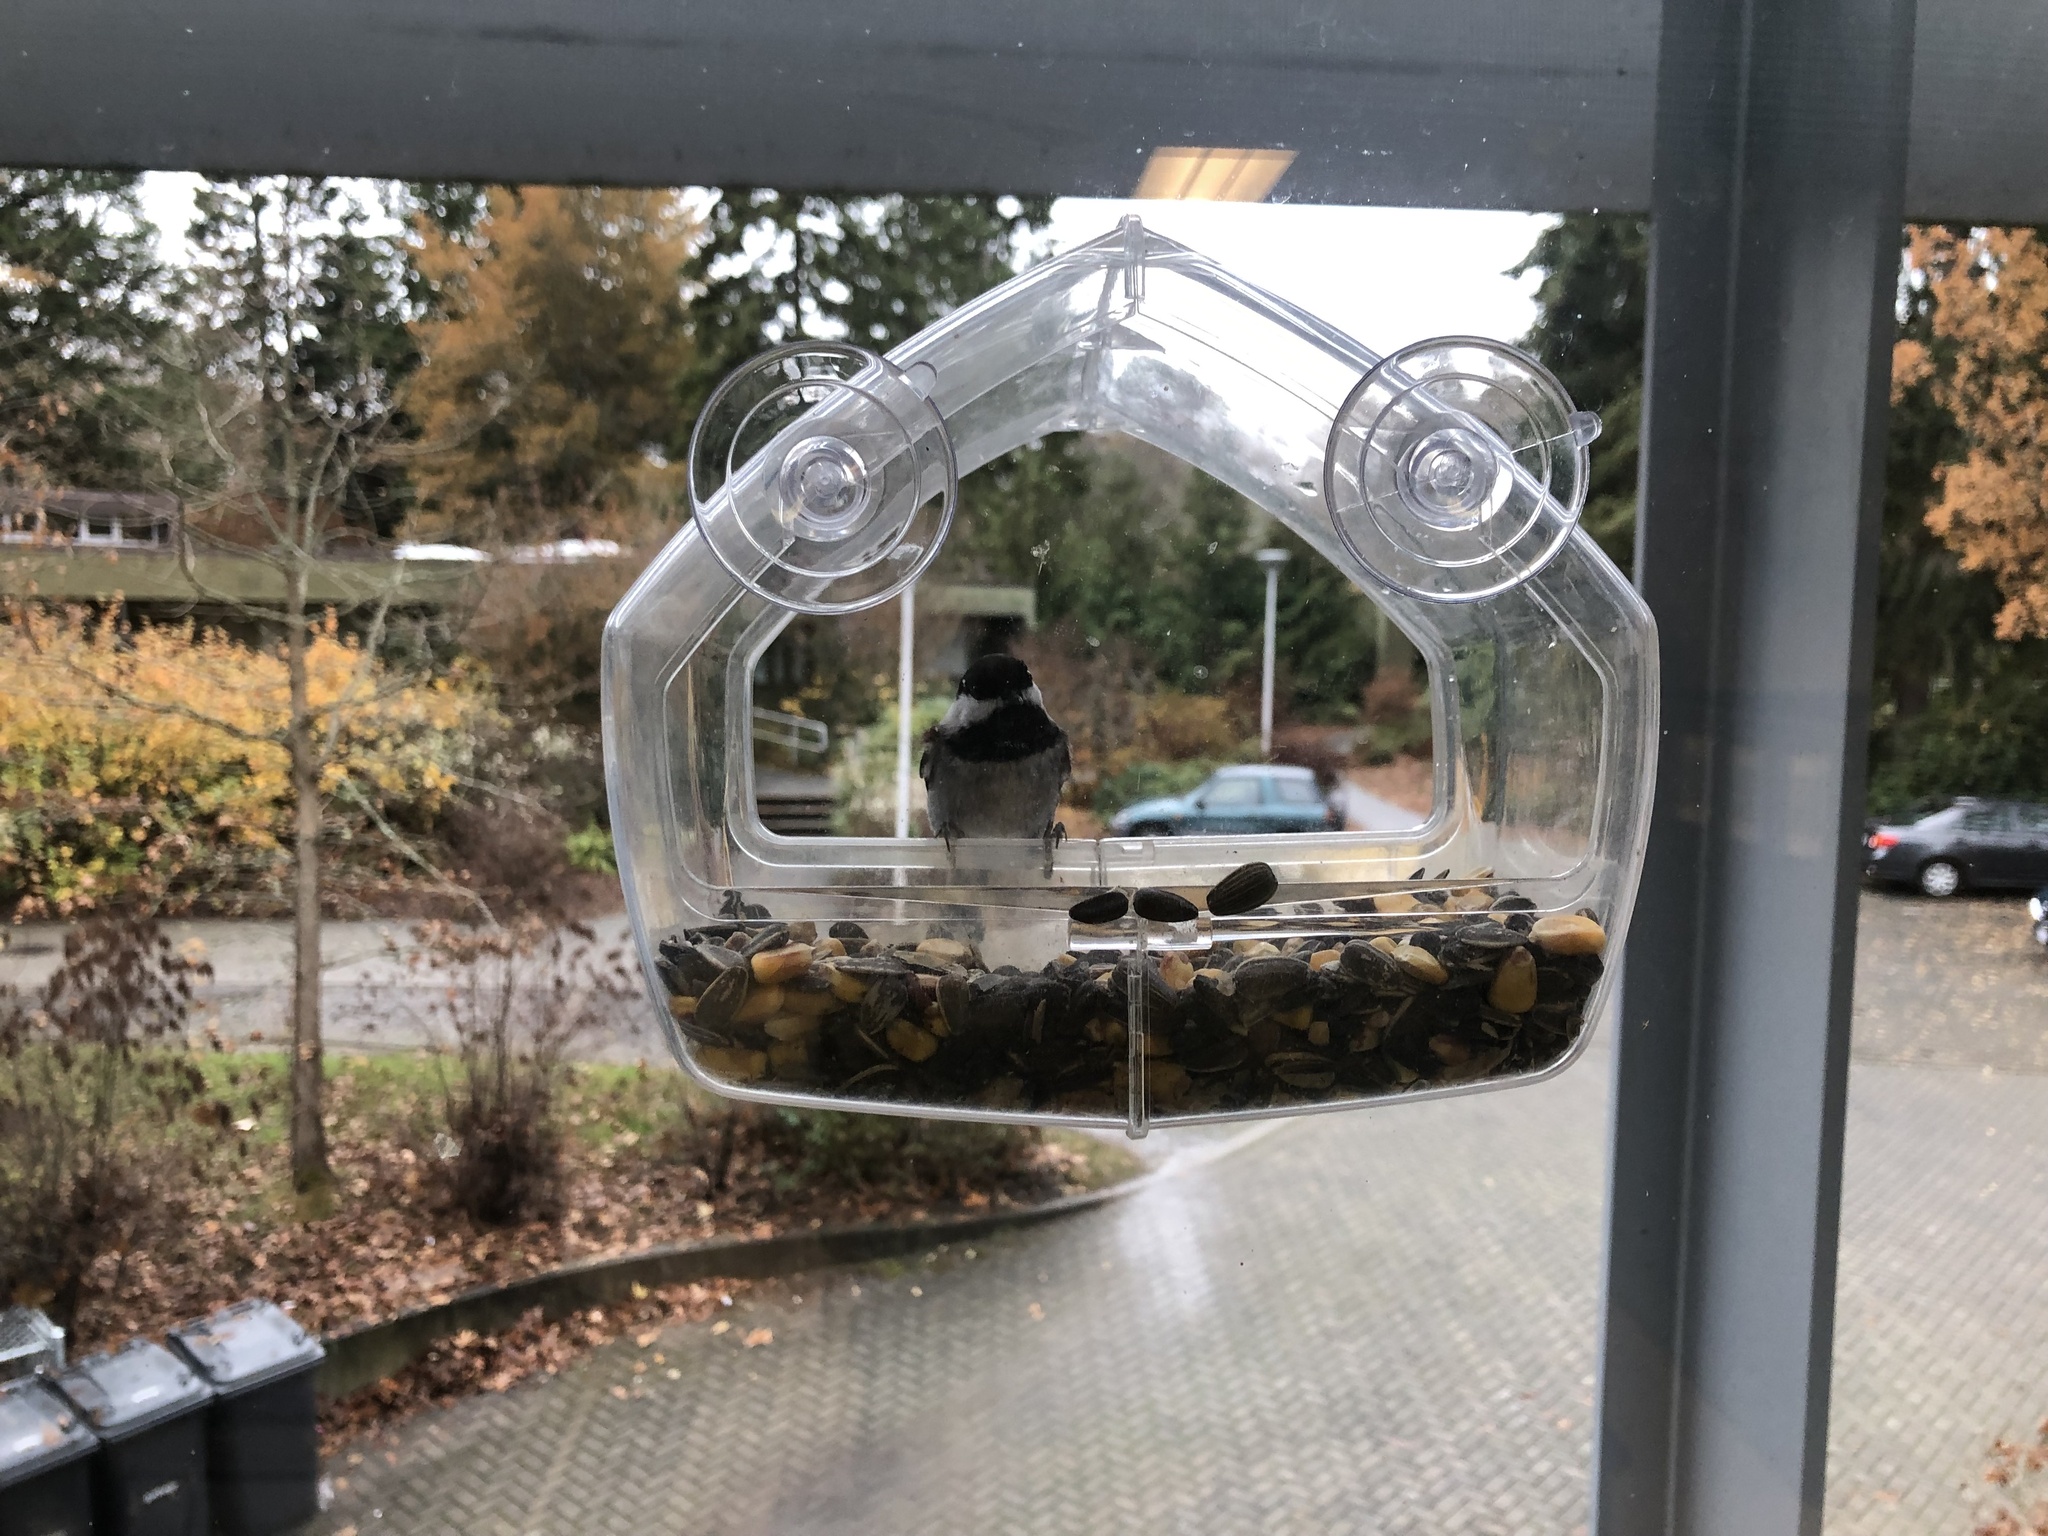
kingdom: Animalia
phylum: Chordata
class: Aves
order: Passeriformes
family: Paridae
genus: Poecile
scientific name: Poecile rufescens
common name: Chestnut-backed chickadee
